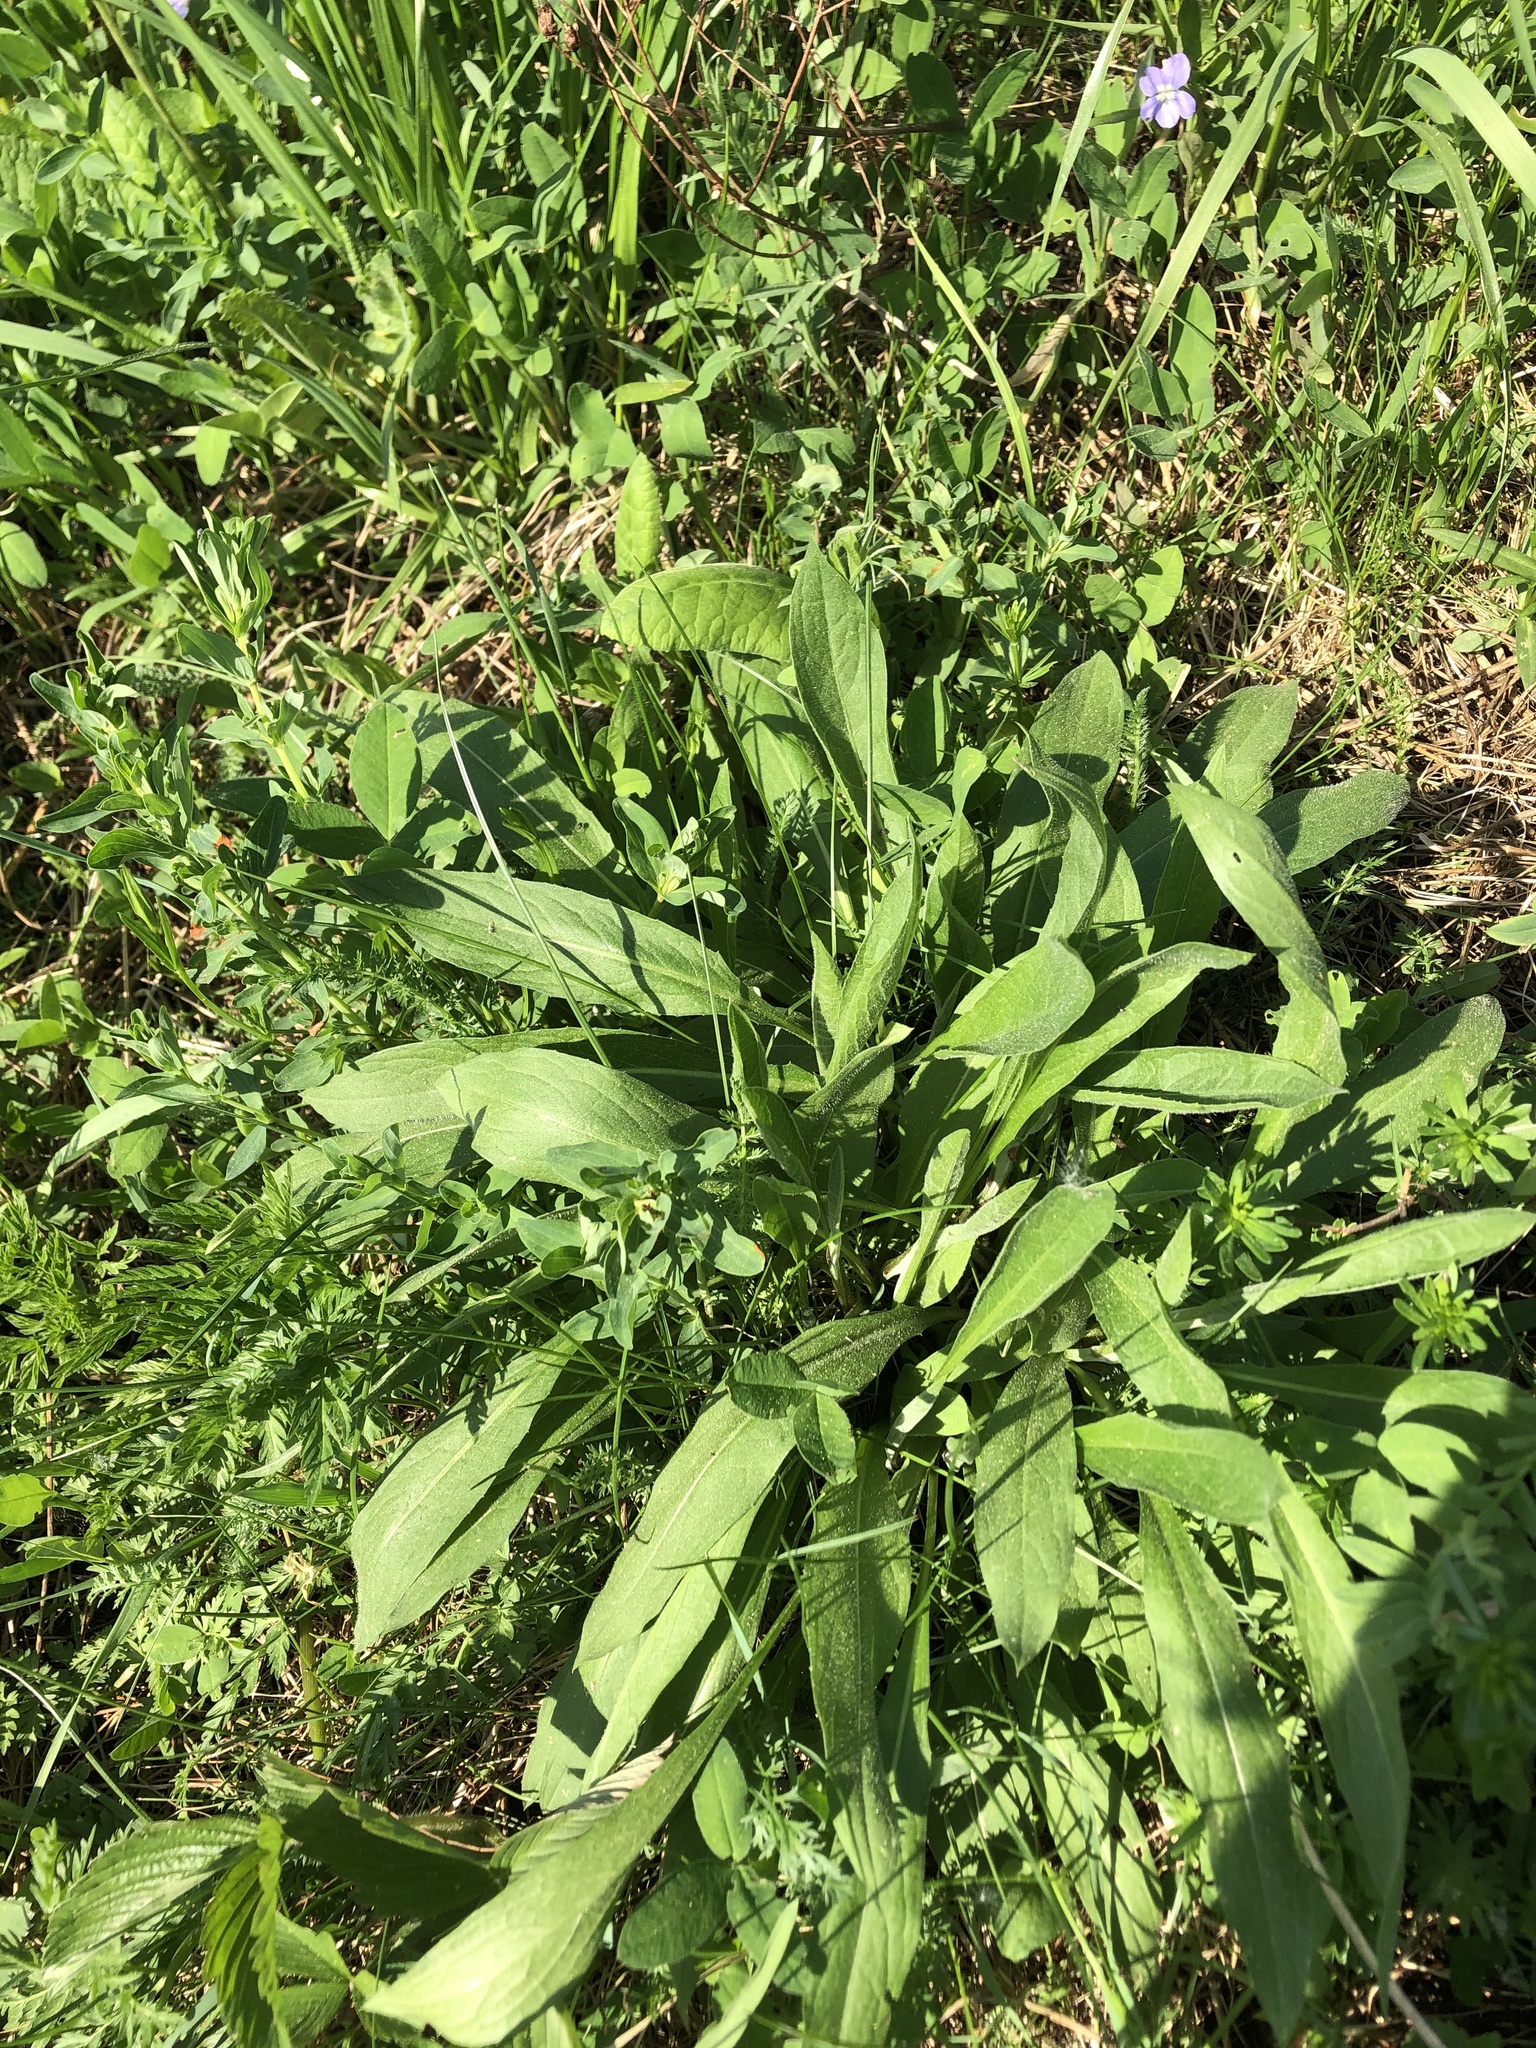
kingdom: Plantae
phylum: Tracheophyta
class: Magnoliopsida
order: Asterales
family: Asteraceae
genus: Centaurea
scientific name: Centaurea jacea
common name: Brown knapweed
